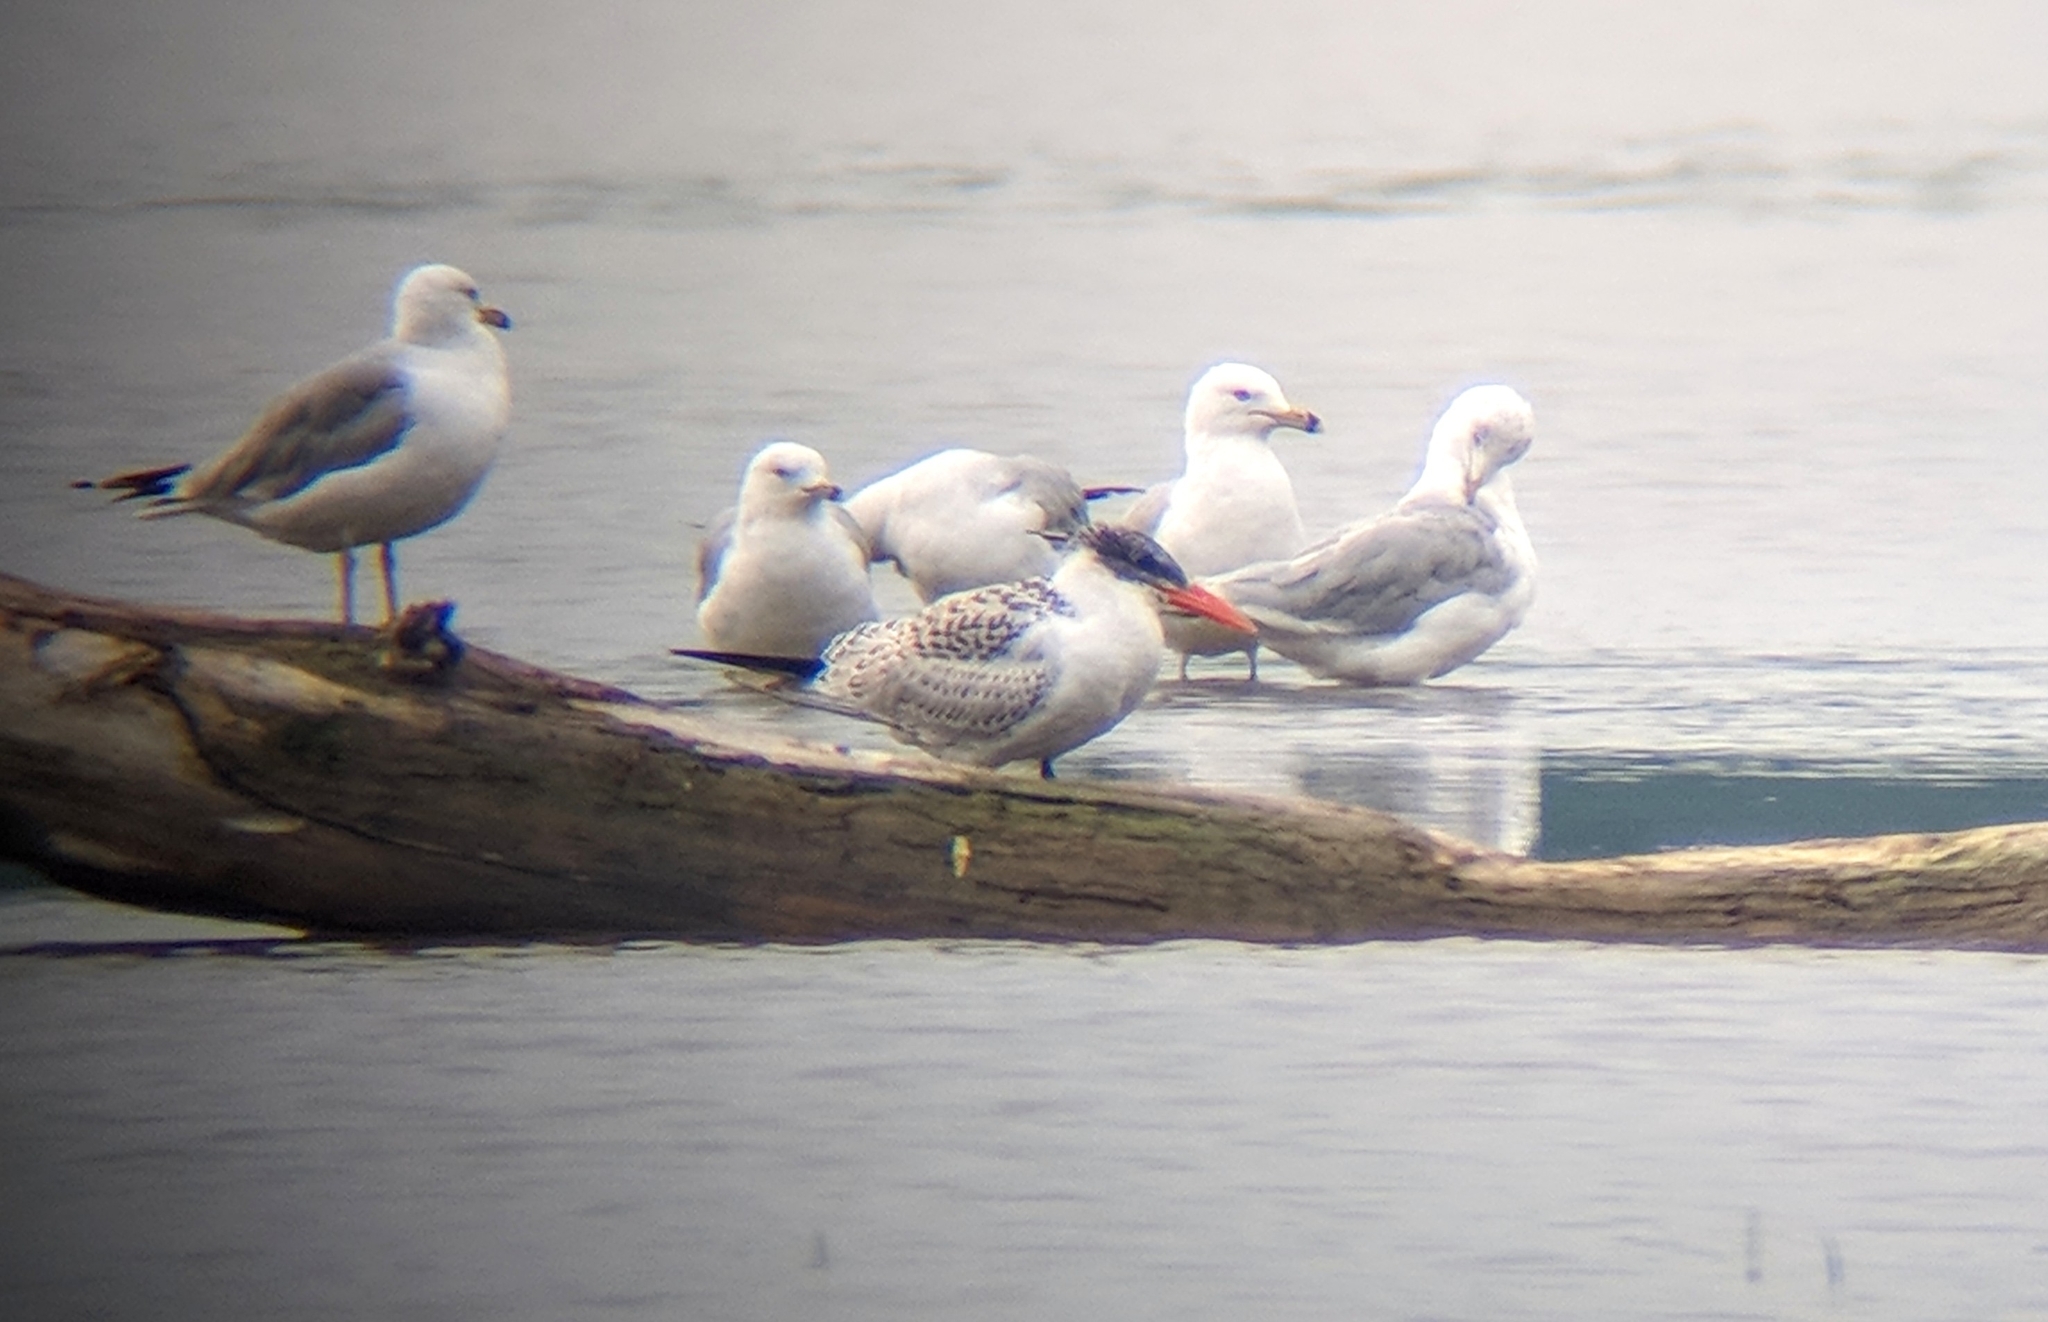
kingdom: Animalia
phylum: Chordata
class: Aves
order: Charadriiformes
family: Laridae
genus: Hydroprogne
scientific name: Hydroprogne caspia
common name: Caspian tern
